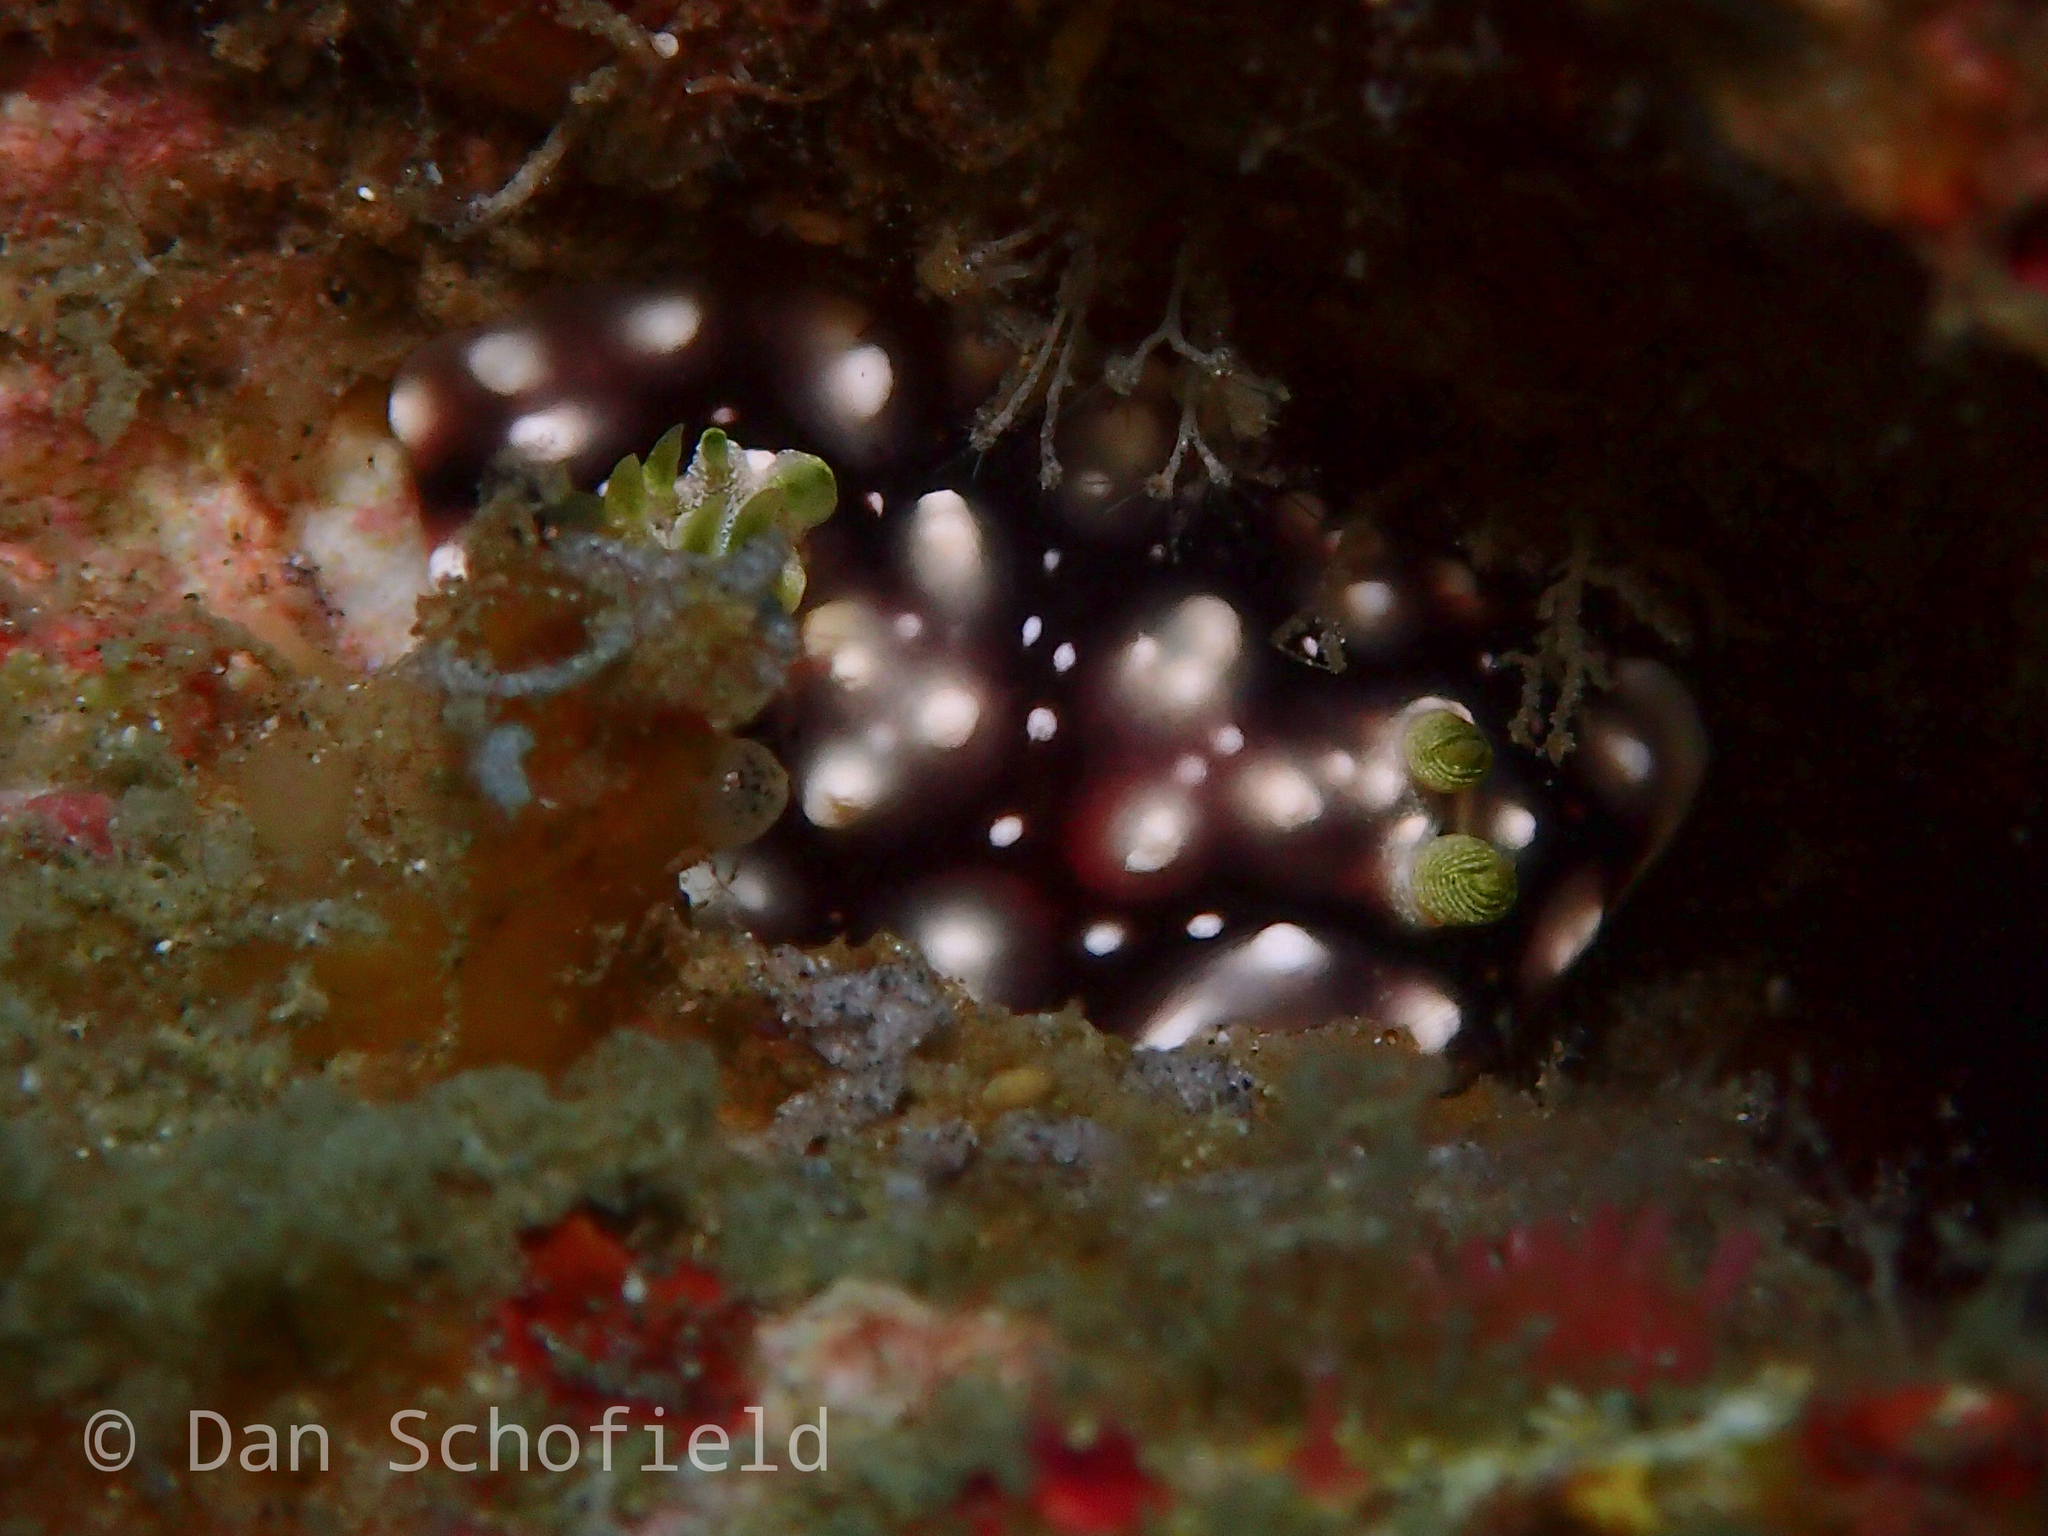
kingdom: Animalia
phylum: Mollusca
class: Gastropoda
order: Nudibranchia
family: Chromodorididae
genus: Goniobranchus
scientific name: Goniobranchus geometricus
